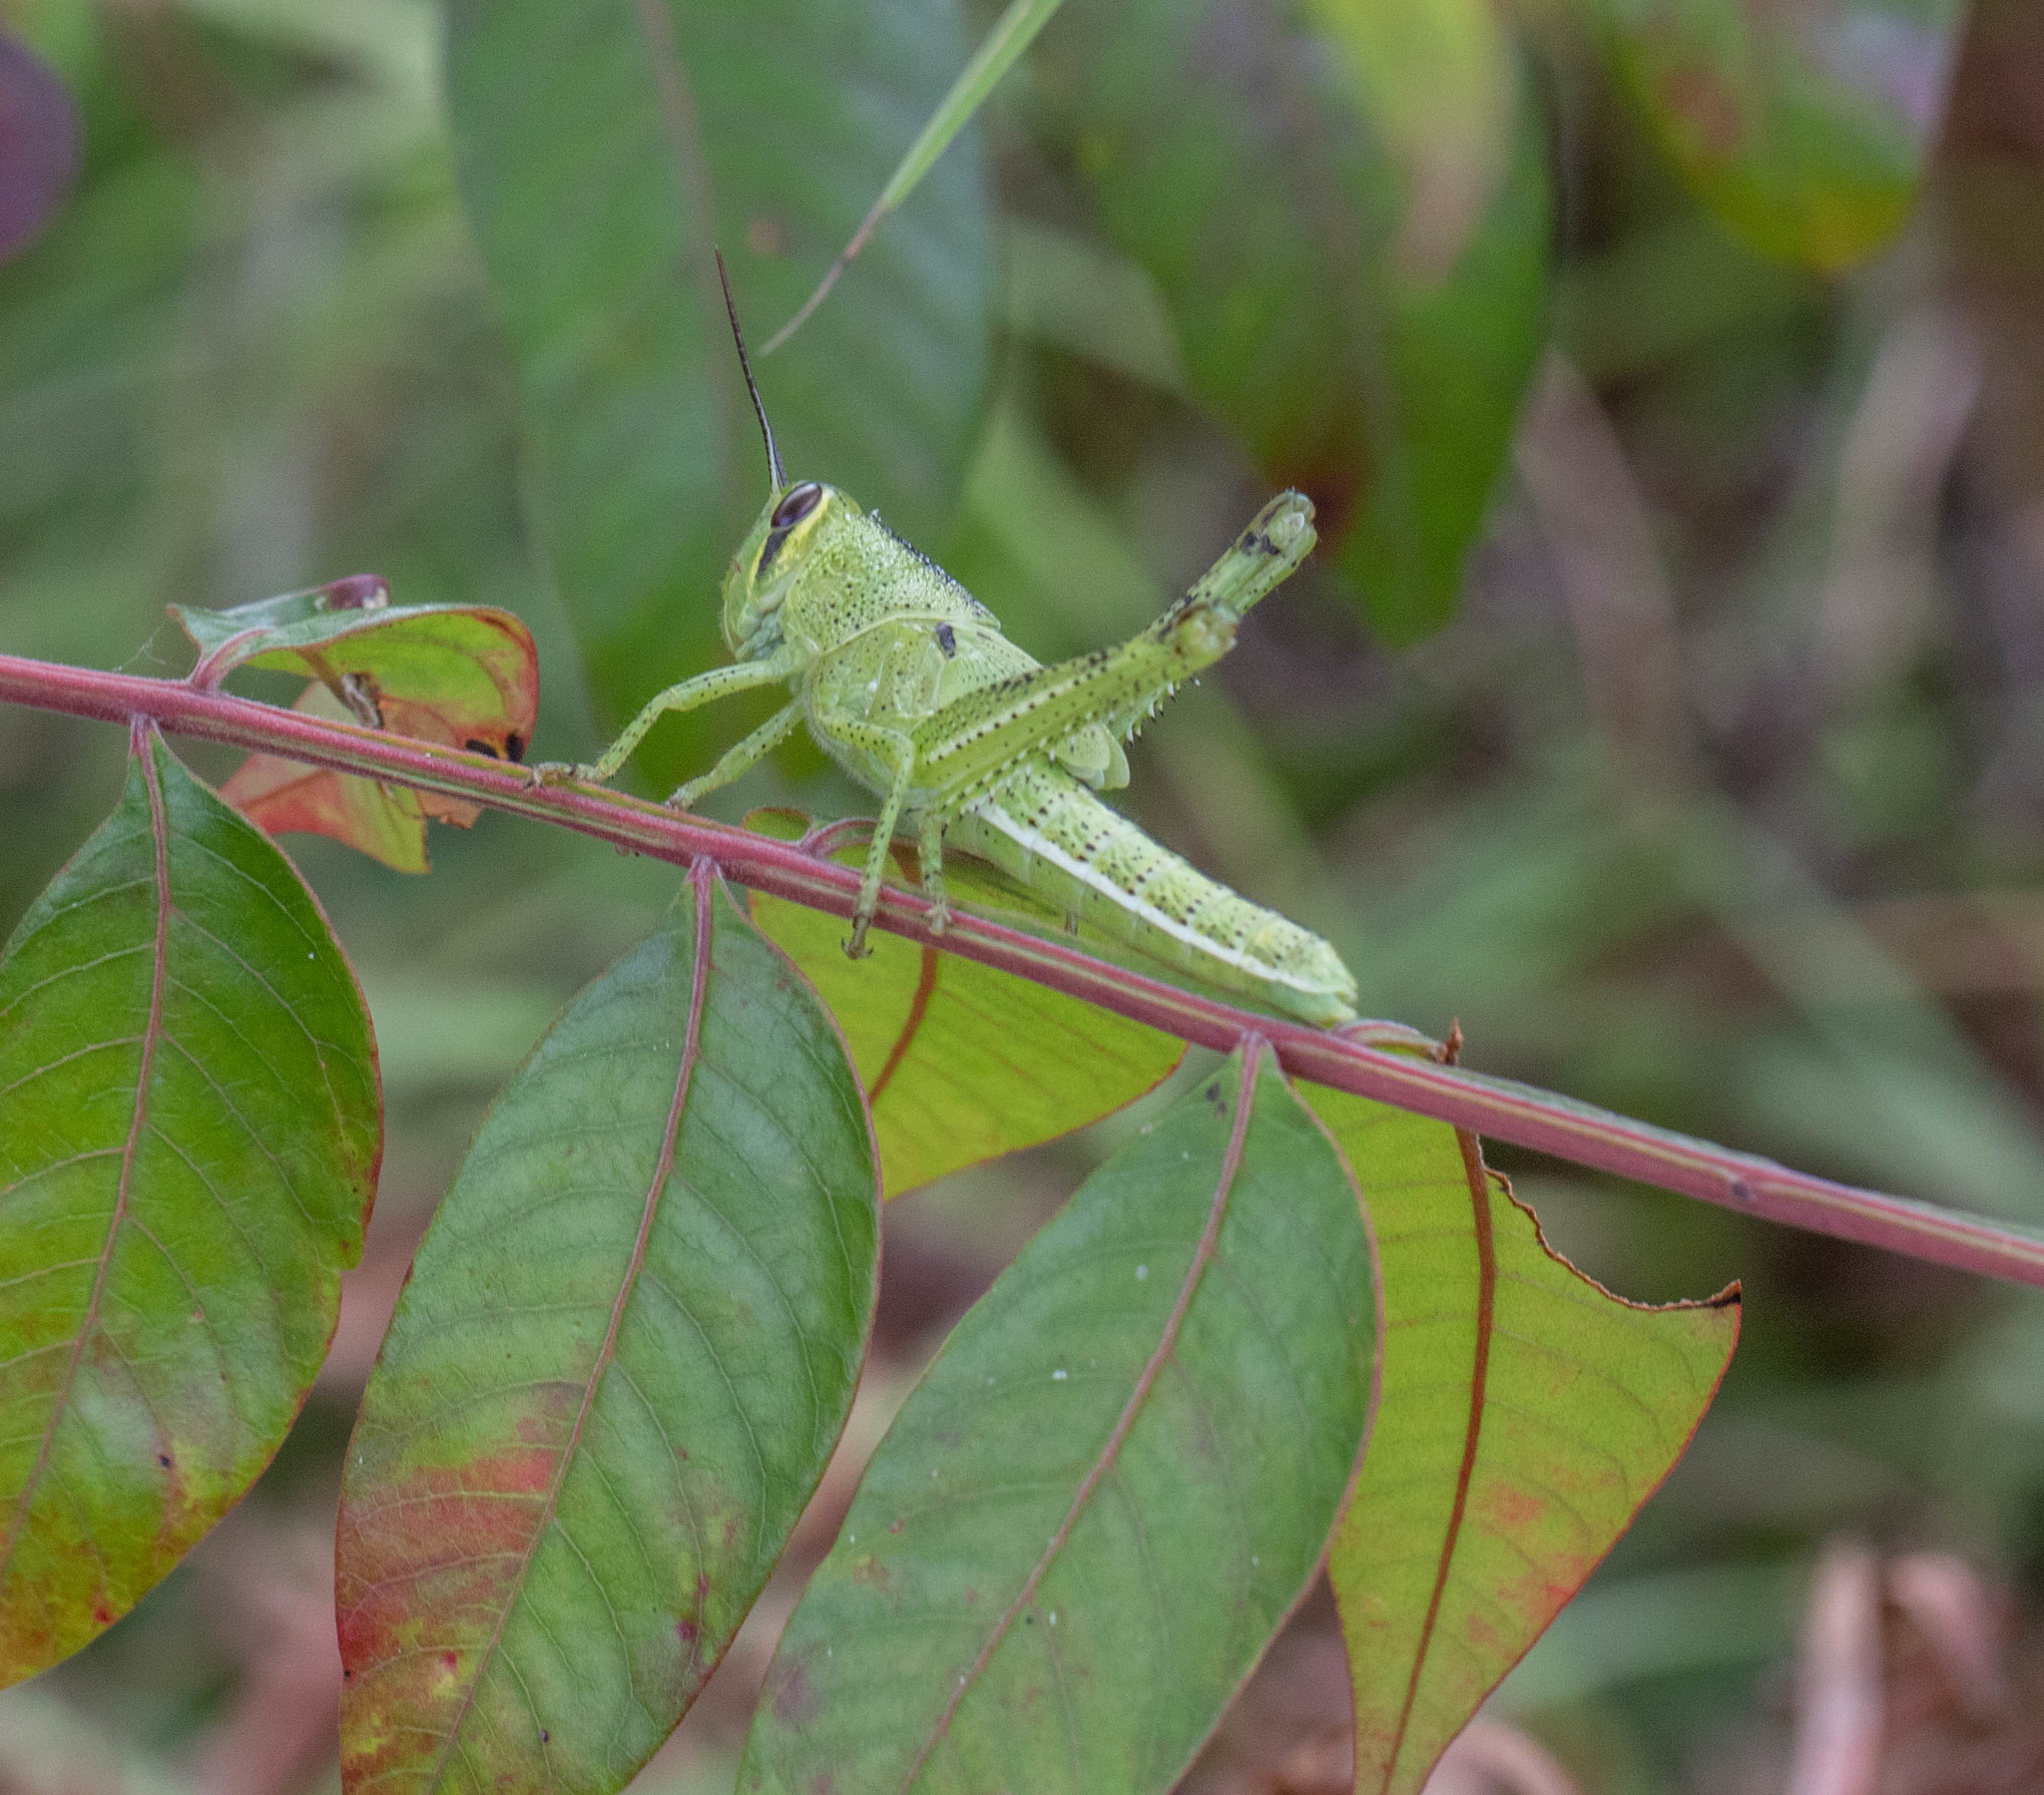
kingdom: Animalia
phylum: Arthropoda
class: Insecta
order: Orthoptera
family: Acrididae
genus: Schistocerca
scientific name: Schistocerca americana
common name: American bird locust
